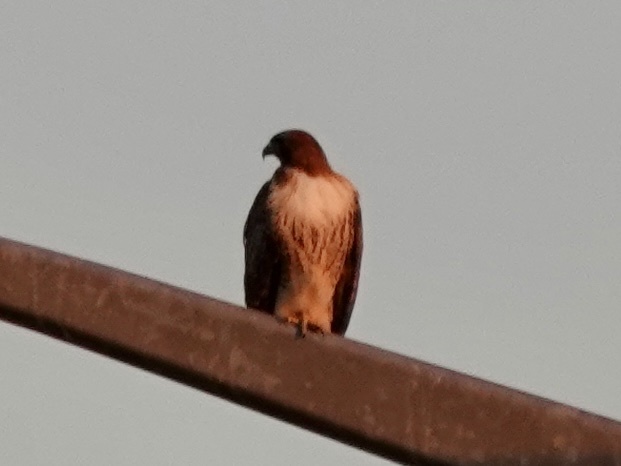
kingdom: Animalia
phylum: Chordata
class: Aves
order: Accipitriformes
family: Accipitridae
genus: Buteo
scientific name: Buteo jamaicensis
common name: Red-tailed hawk
